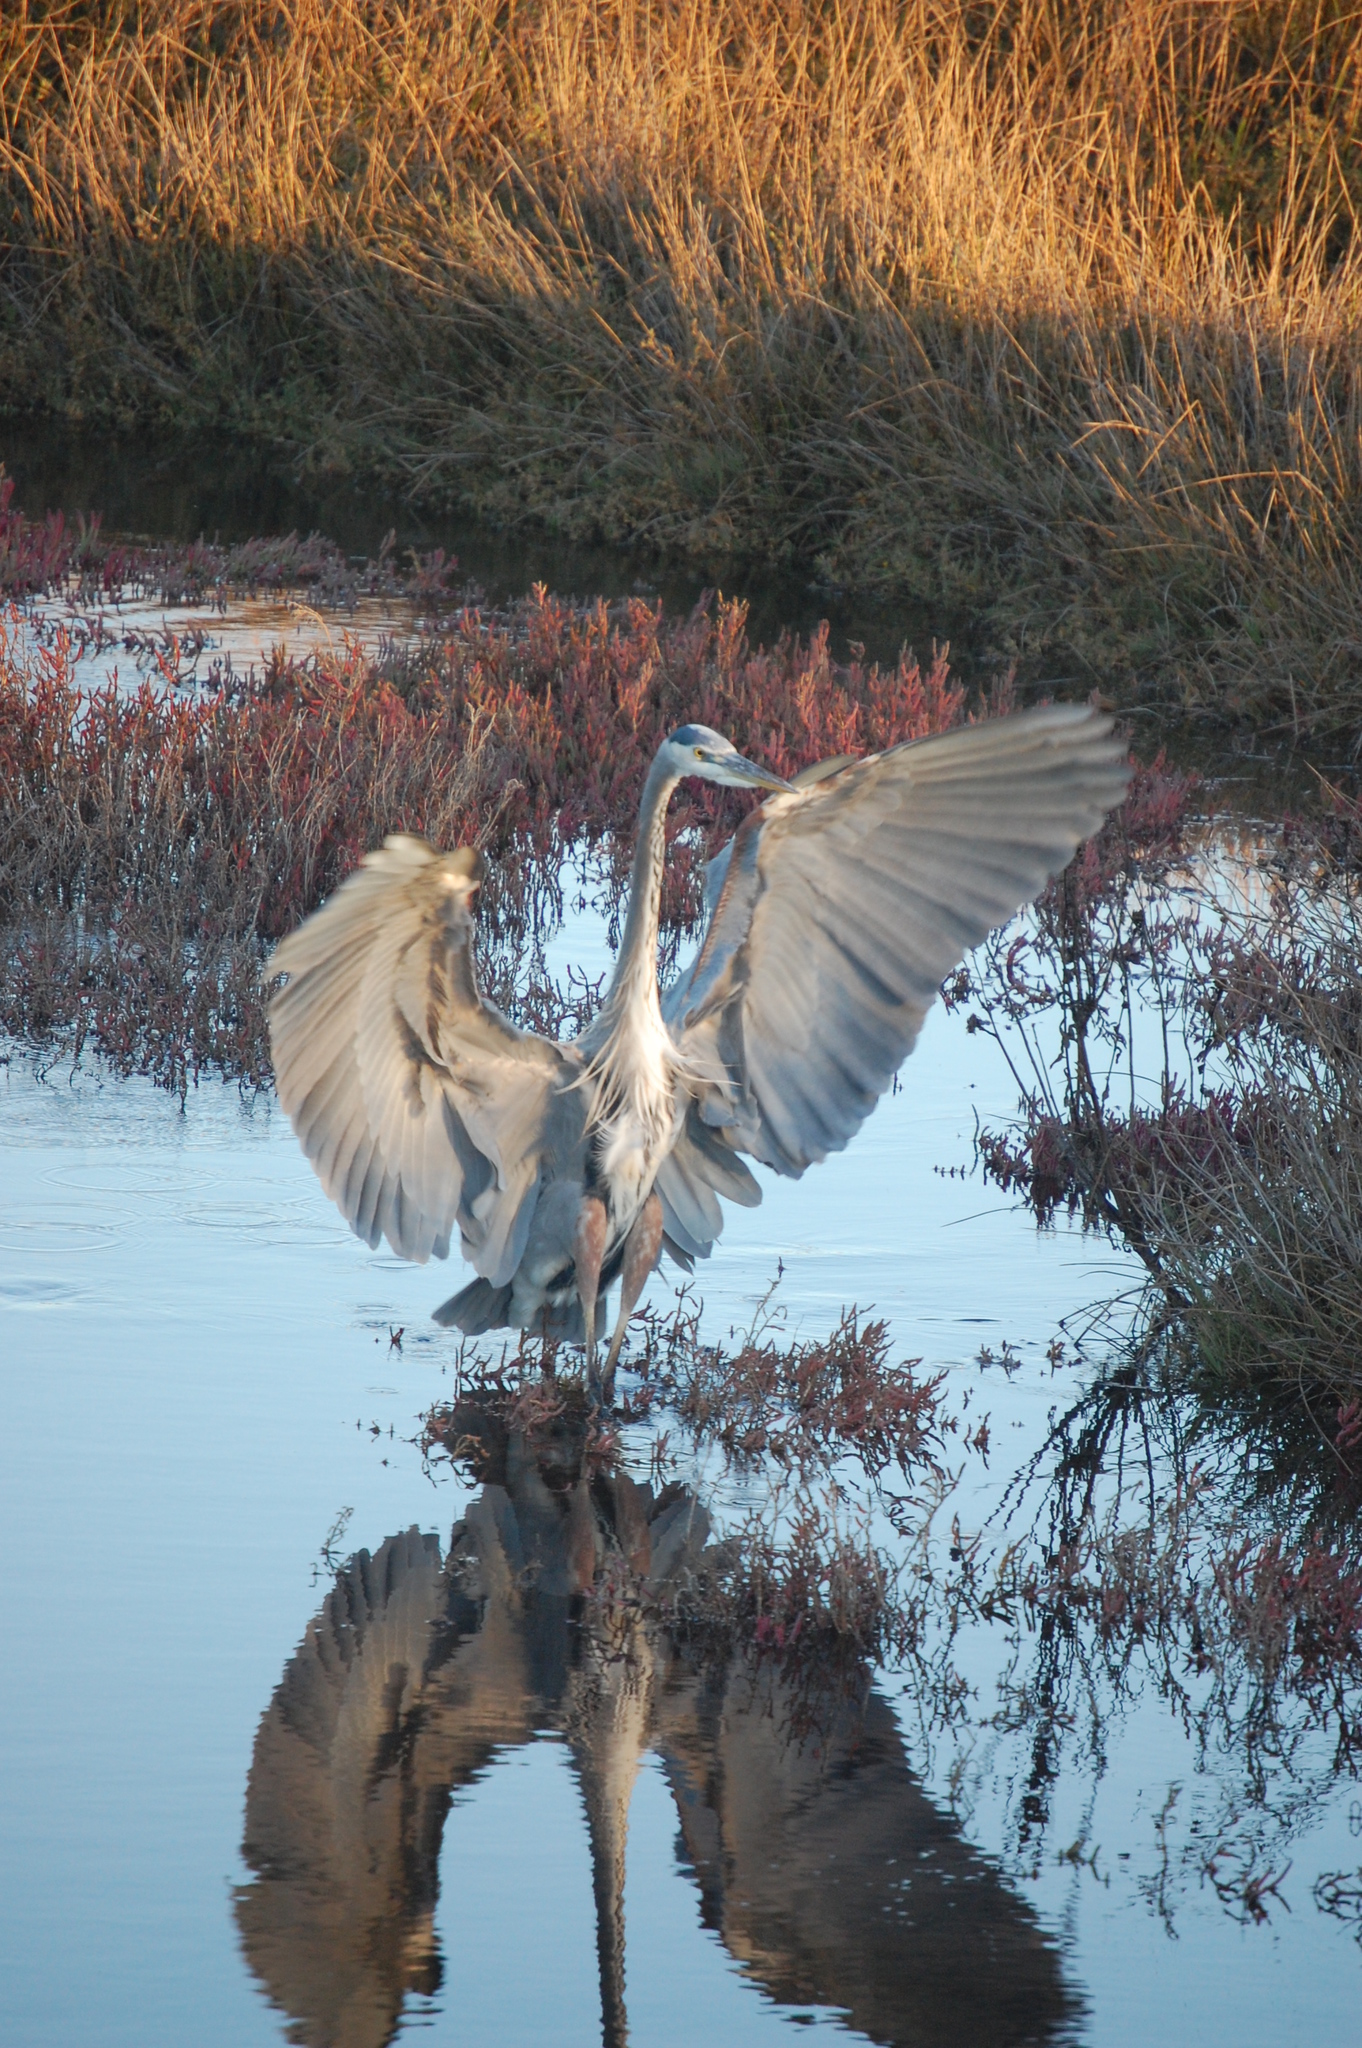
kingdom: Animalia
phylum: Chordata
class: Aves
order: Pelecaniformes
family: Ardeidae
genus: Ardea
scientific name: Ardea herodias
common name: Great blue heron
